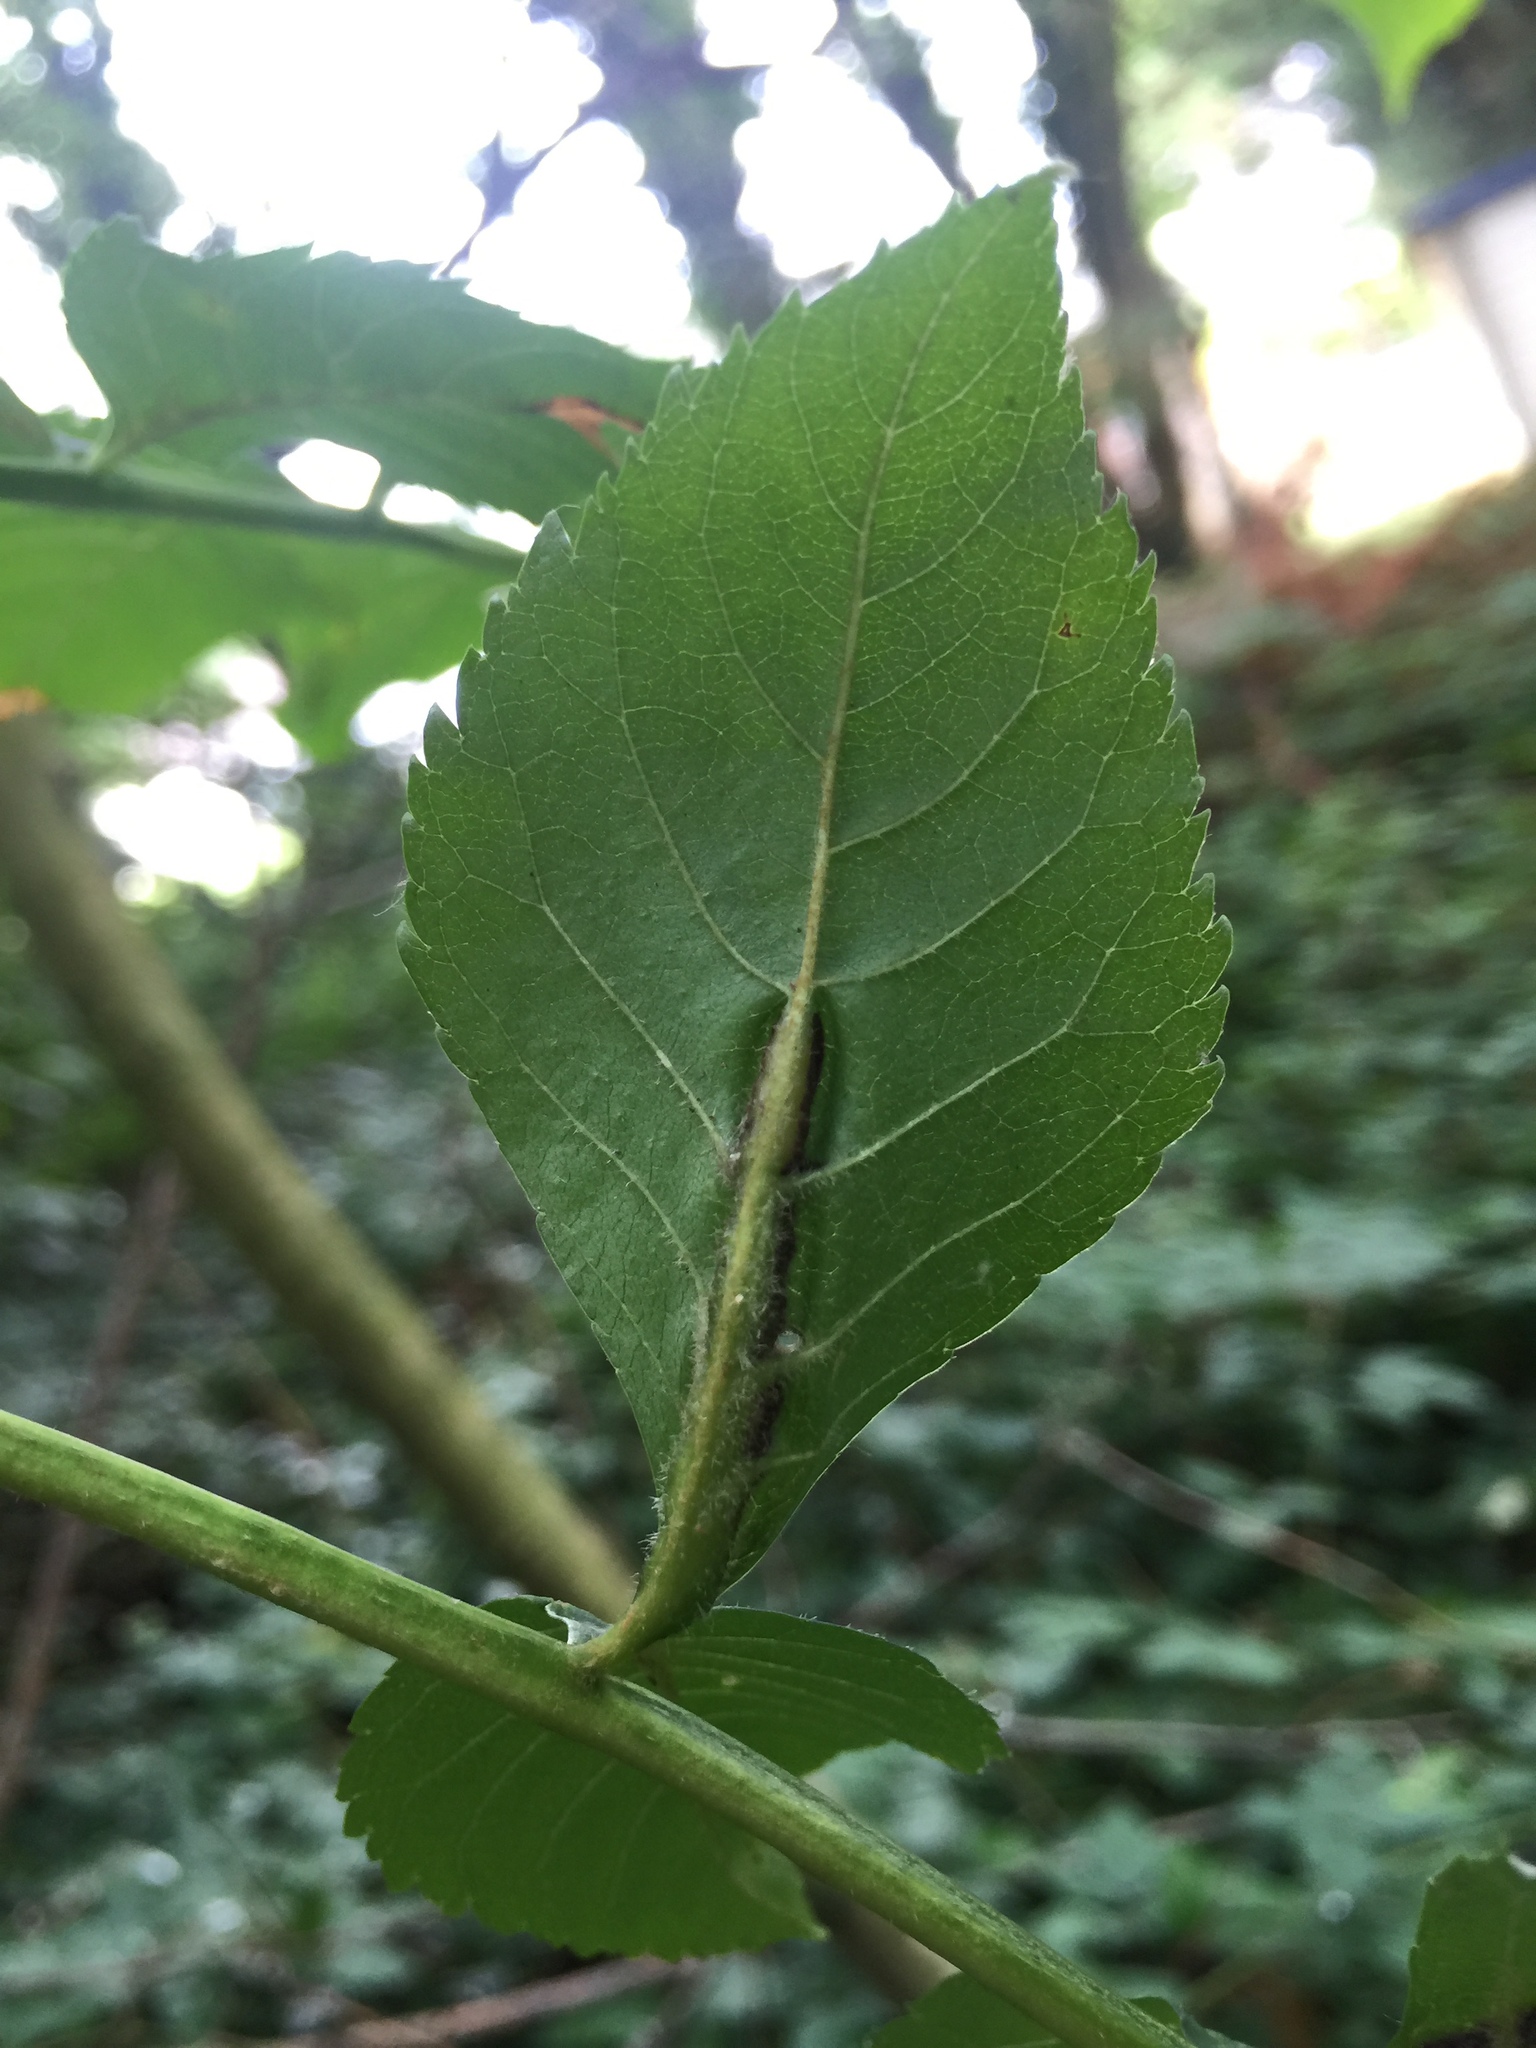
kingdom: Animalia
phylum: Arthropoda
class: Insecta
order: Diptera
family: Cecidomyiidae
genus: Dasineura
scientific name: Dasineura fraxini
